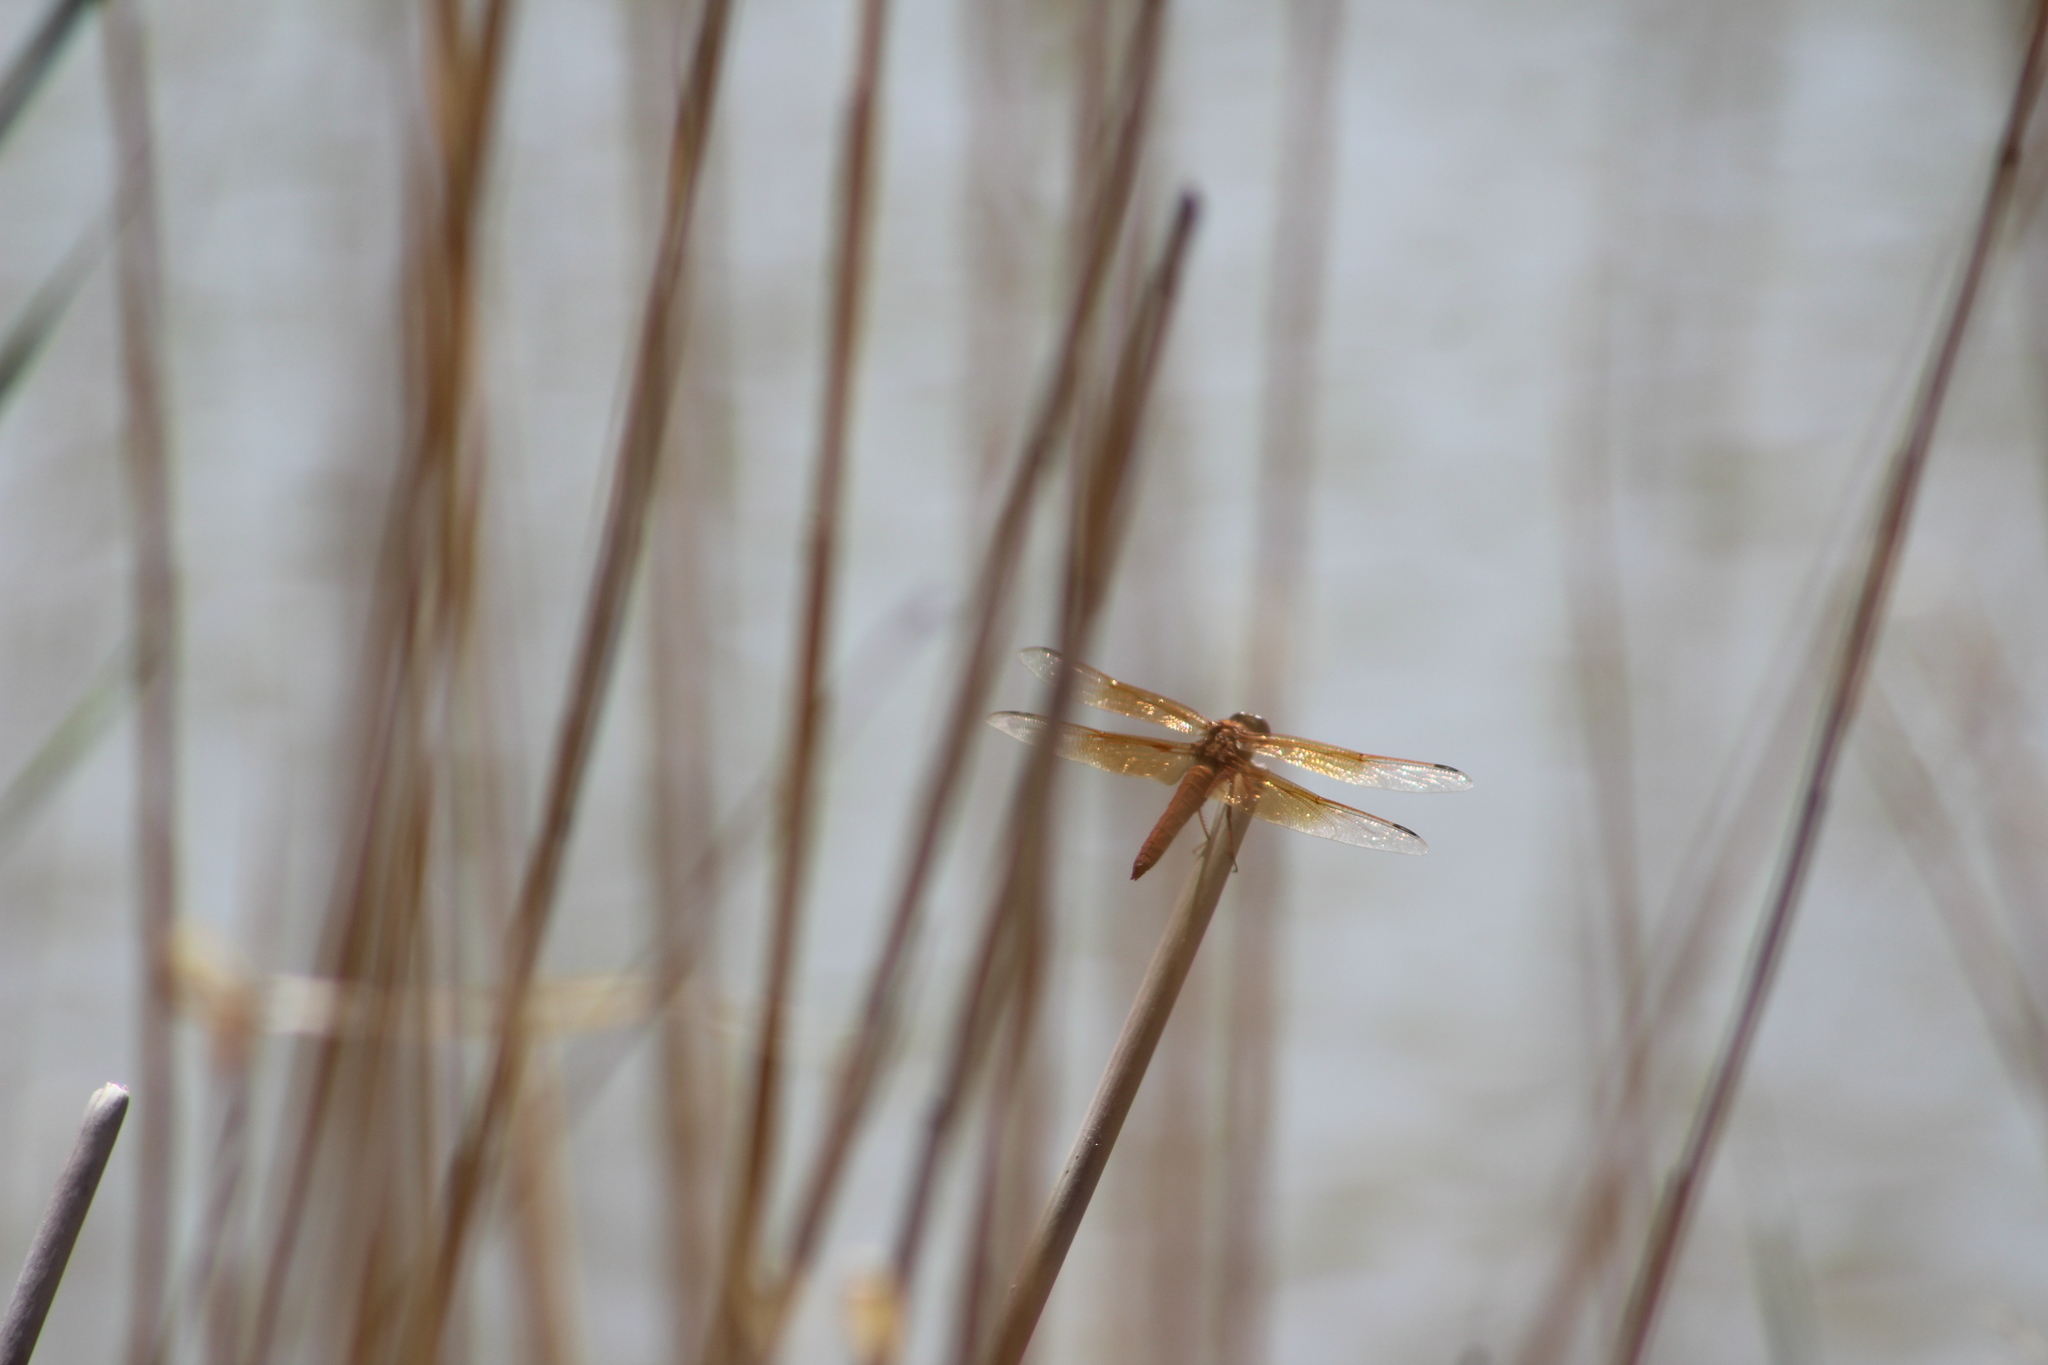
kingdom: Animalia
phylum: Arthropoda
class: Insecta
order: Odonata
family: Libellulidae
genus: Libellula
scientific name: Libellula saturata
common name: Flame skimmer
